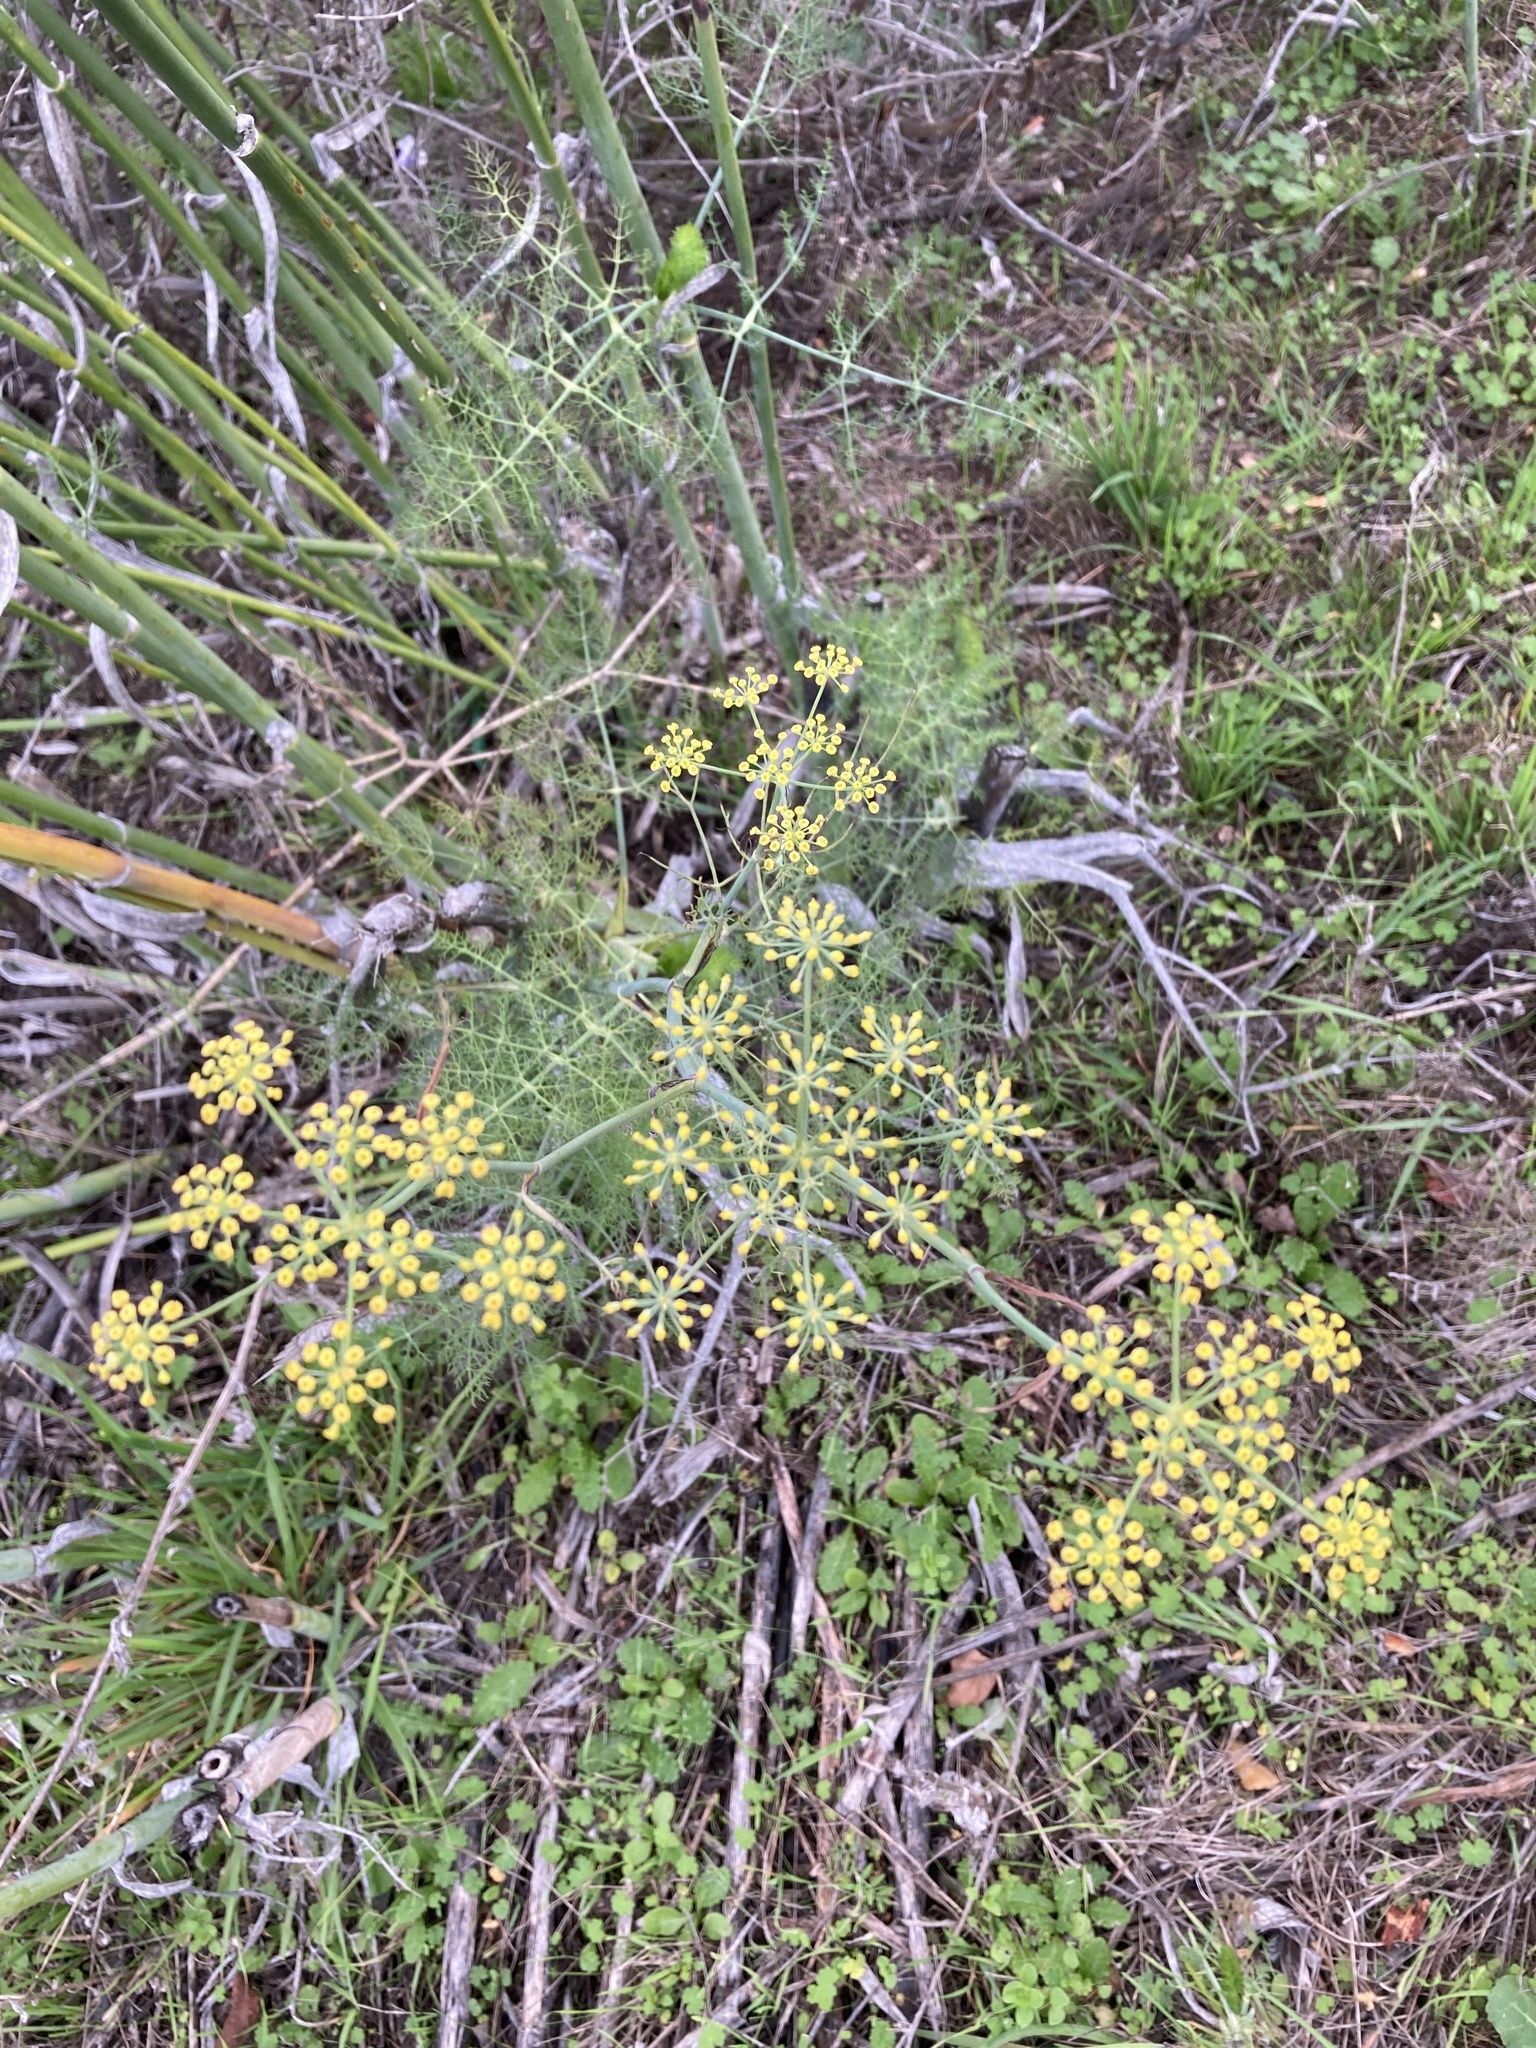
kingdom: Plantae
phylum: Tracheophyta
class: Magnoliopsida
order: Apiales
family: Apiaceae
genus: Foeniculum
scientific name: Foeniculum vulgare
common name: Fennel
